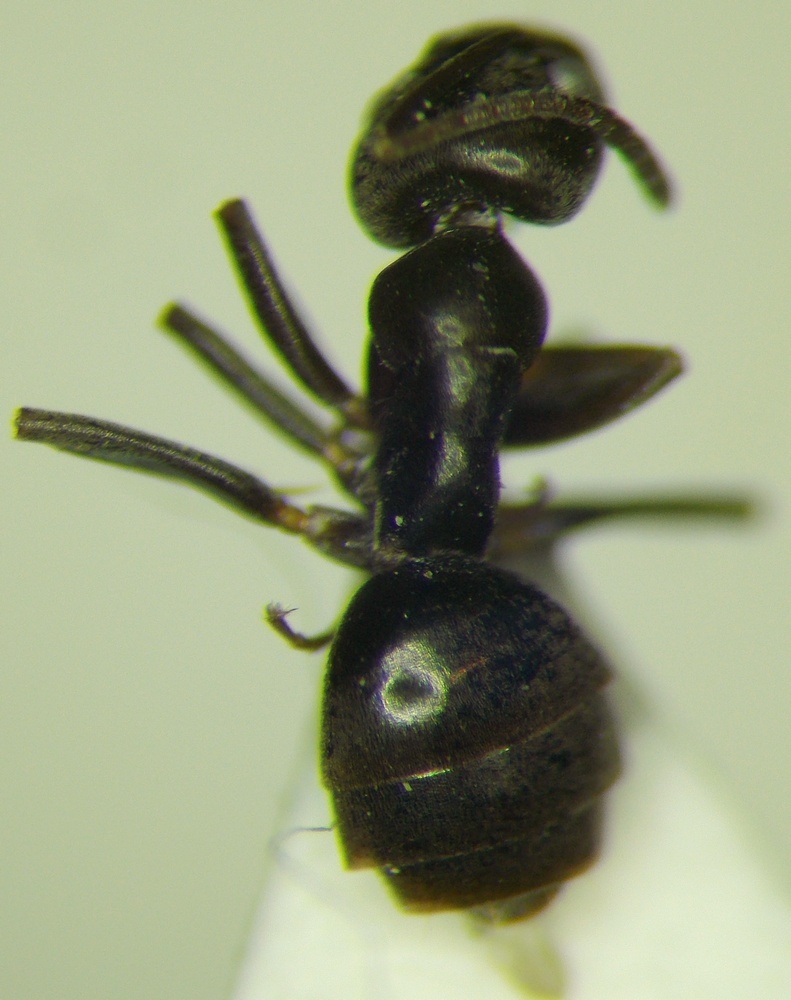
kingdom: Animalia
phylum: Arthropoda
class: Insecta
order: Hymenoptera
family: Formicidae
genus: Tapinoma
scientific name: Tapinoma erraticum
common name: Erratic ant
